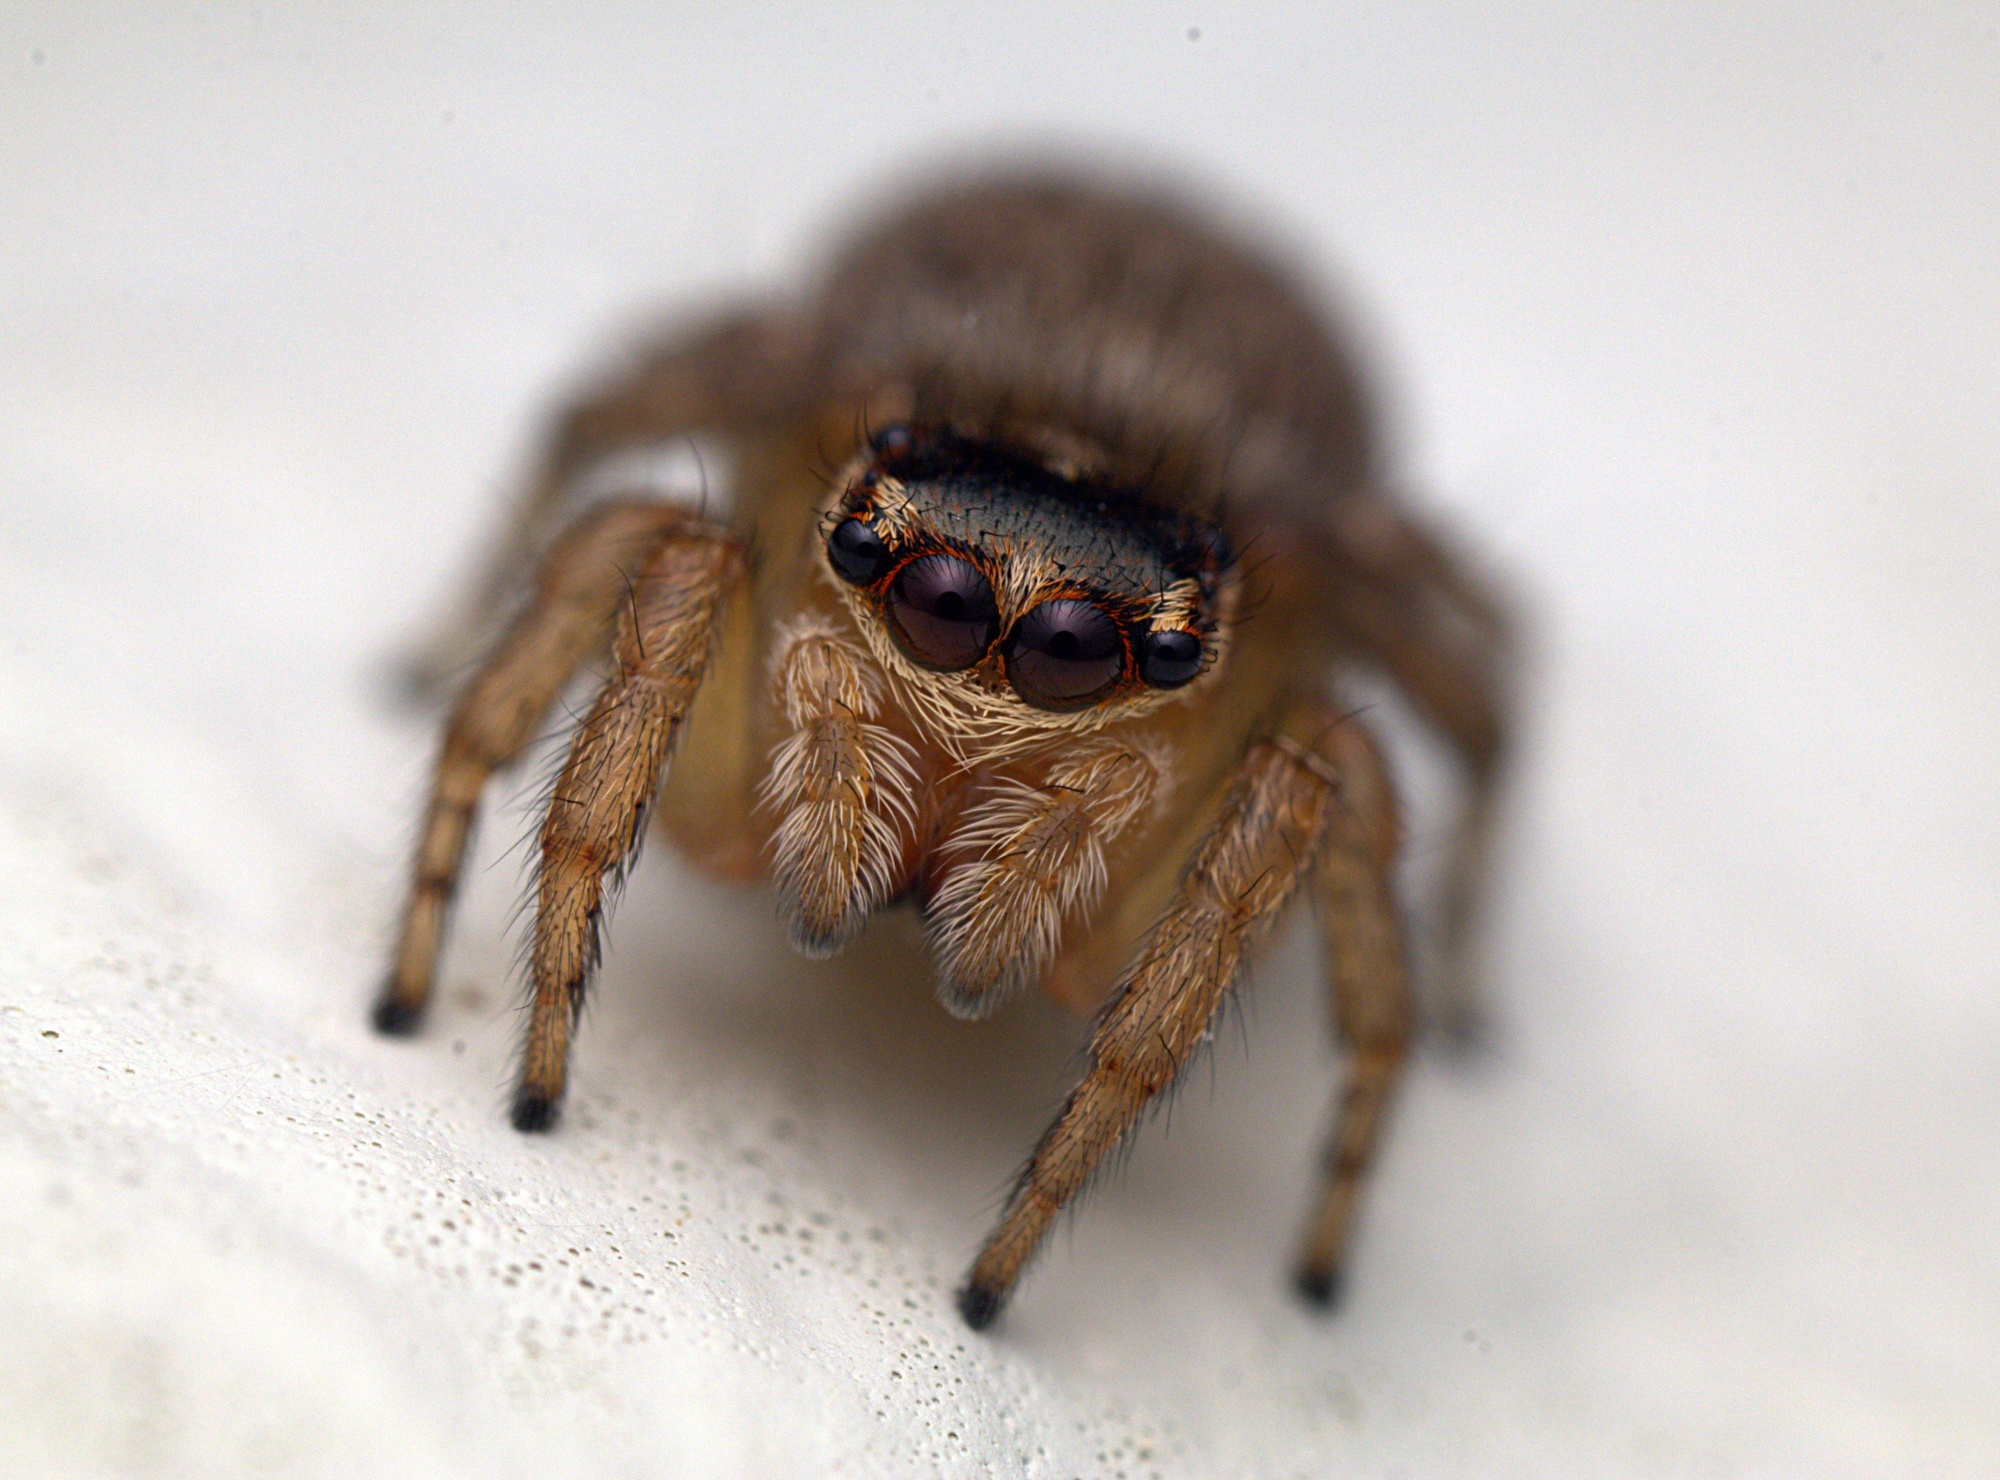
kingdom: Animalia
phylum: Arthropoda
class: Arachnida
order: Araneae
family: Salticidae
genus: Maratus
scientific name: Maratus griseus
